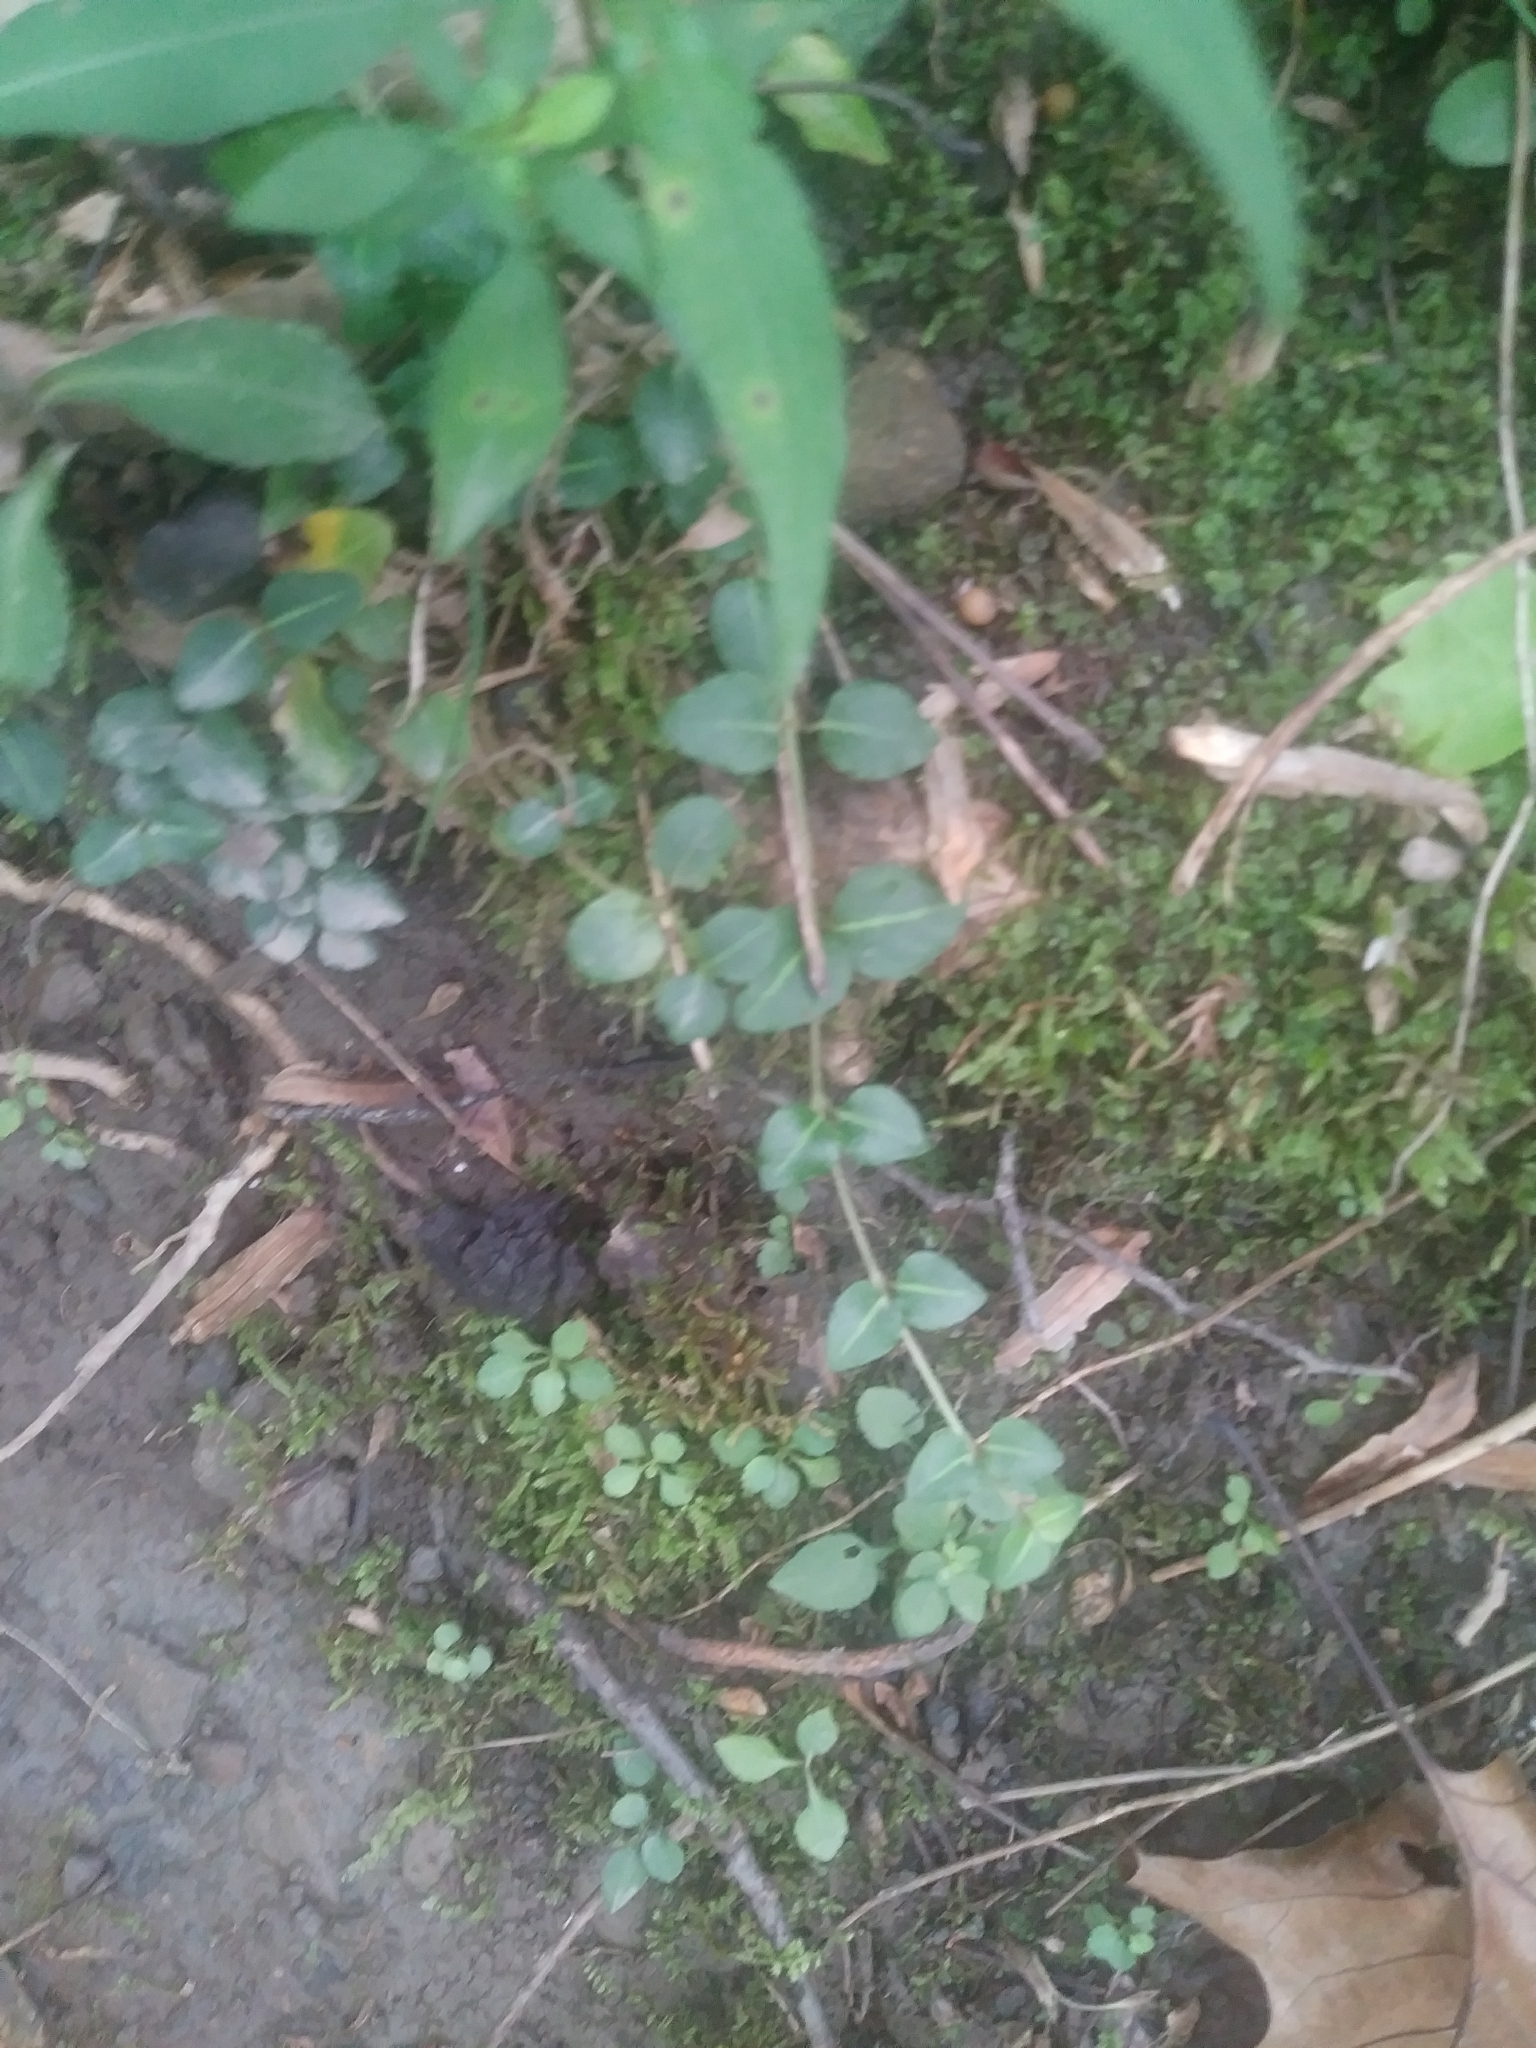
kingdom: Plantae
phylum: Tracheophyta
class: Magnoliopsida
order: Gentianales
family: Rubiaceae
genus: Mitchella
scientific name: Mitchella repens
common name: Partridge-berry
